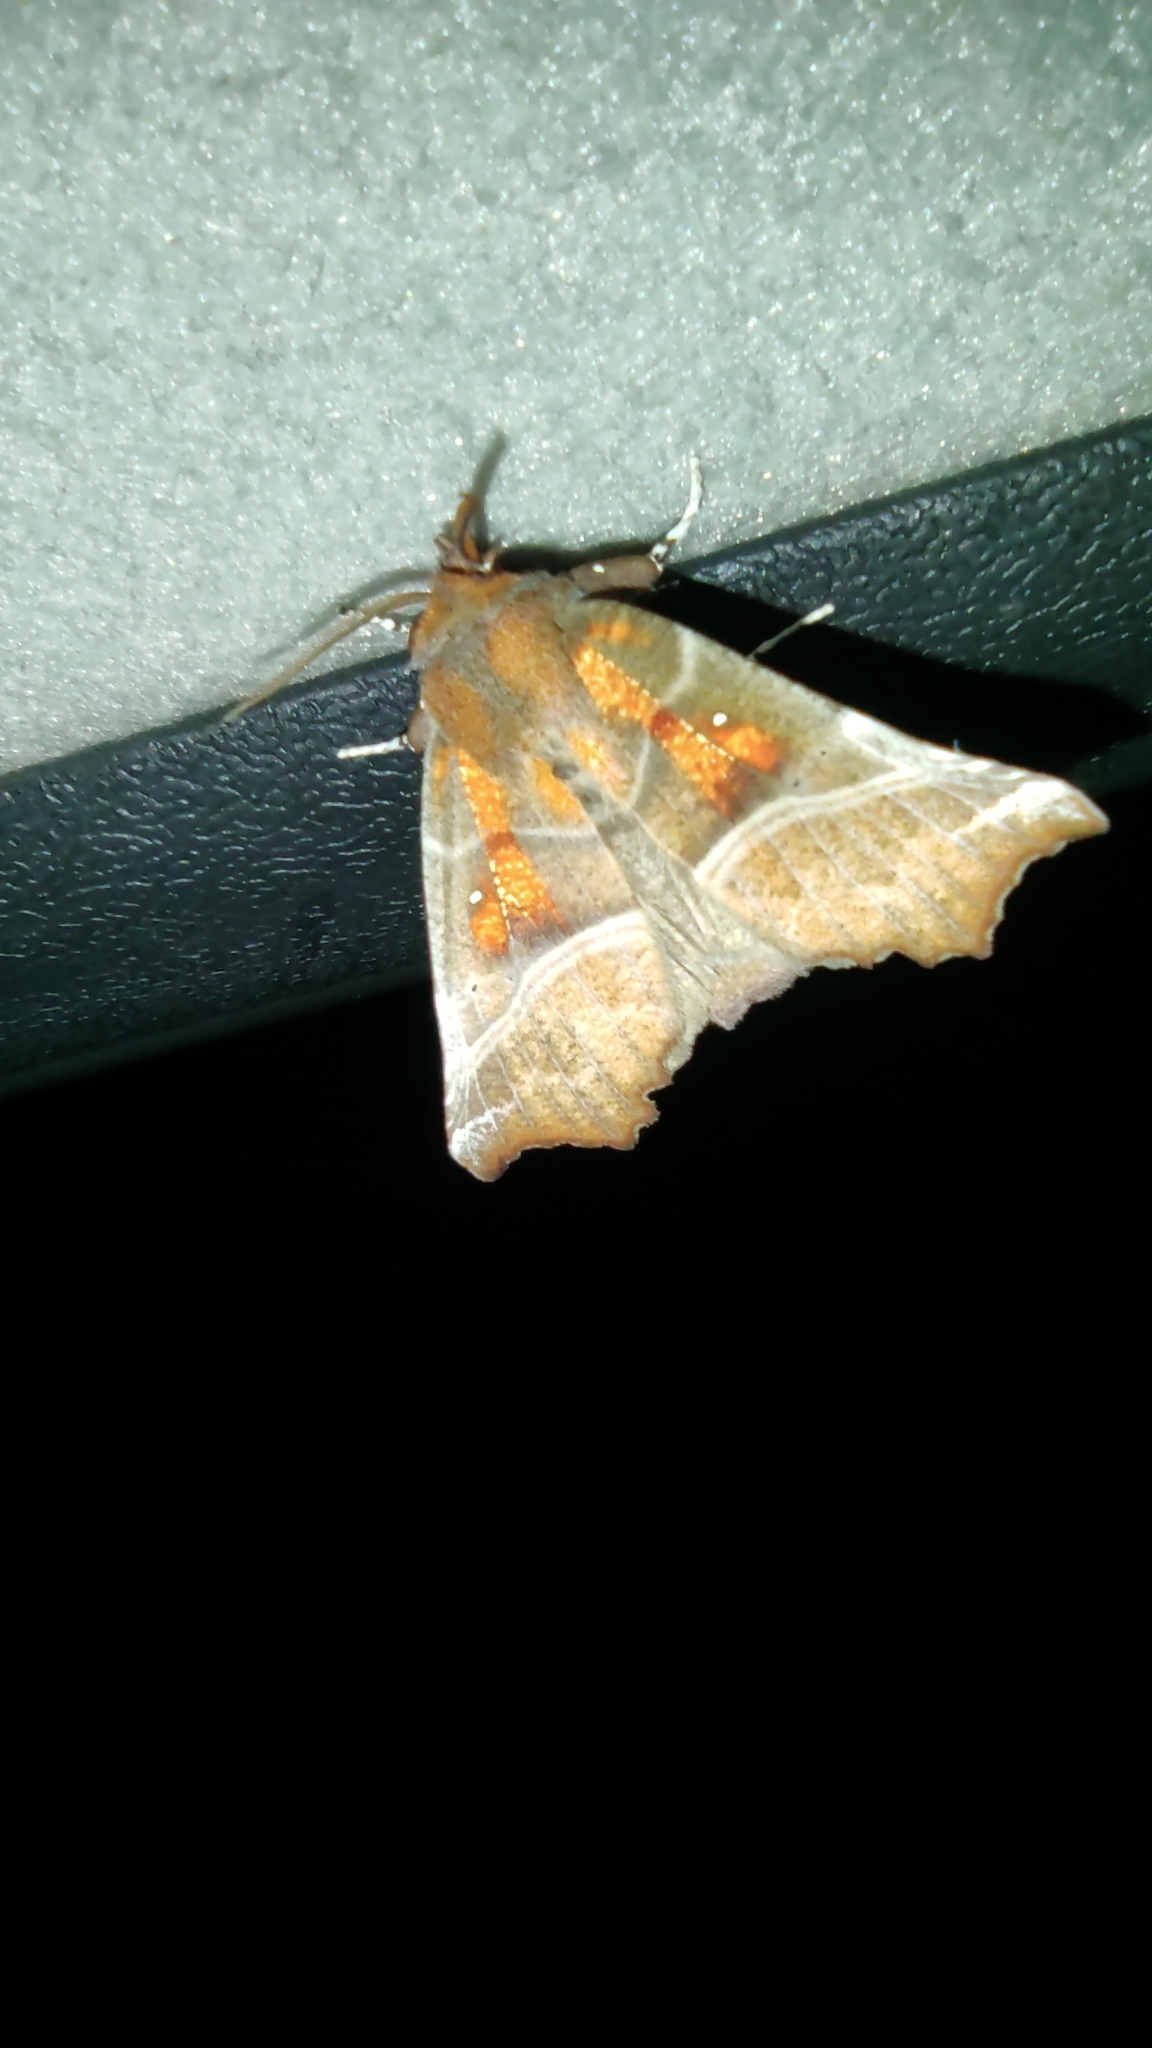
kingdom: Animalia
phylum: Arthropoda
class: Insecta
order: Lepidoptera
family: Erebidae
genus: Scoliopteryx
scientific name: Scoliopteryx libatrix
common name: Herald
